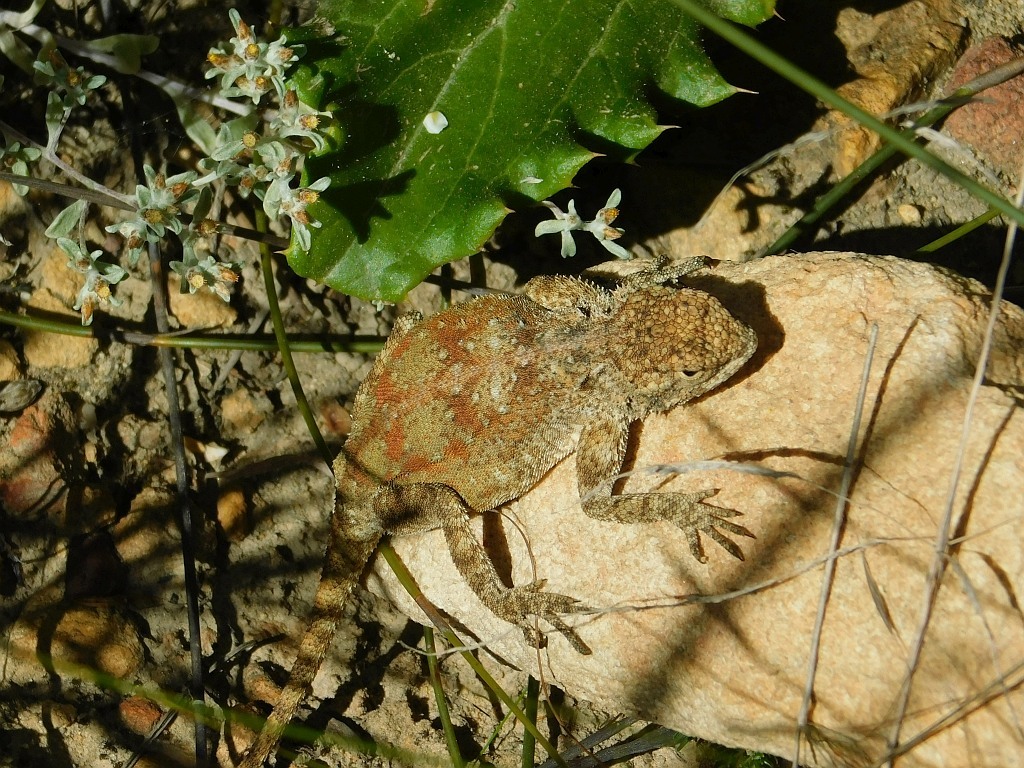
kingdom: Animalia
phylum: Chordata
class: Squamata
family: Agamidae
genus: Agama
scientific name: Agama atra
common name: Southern african rock agama
